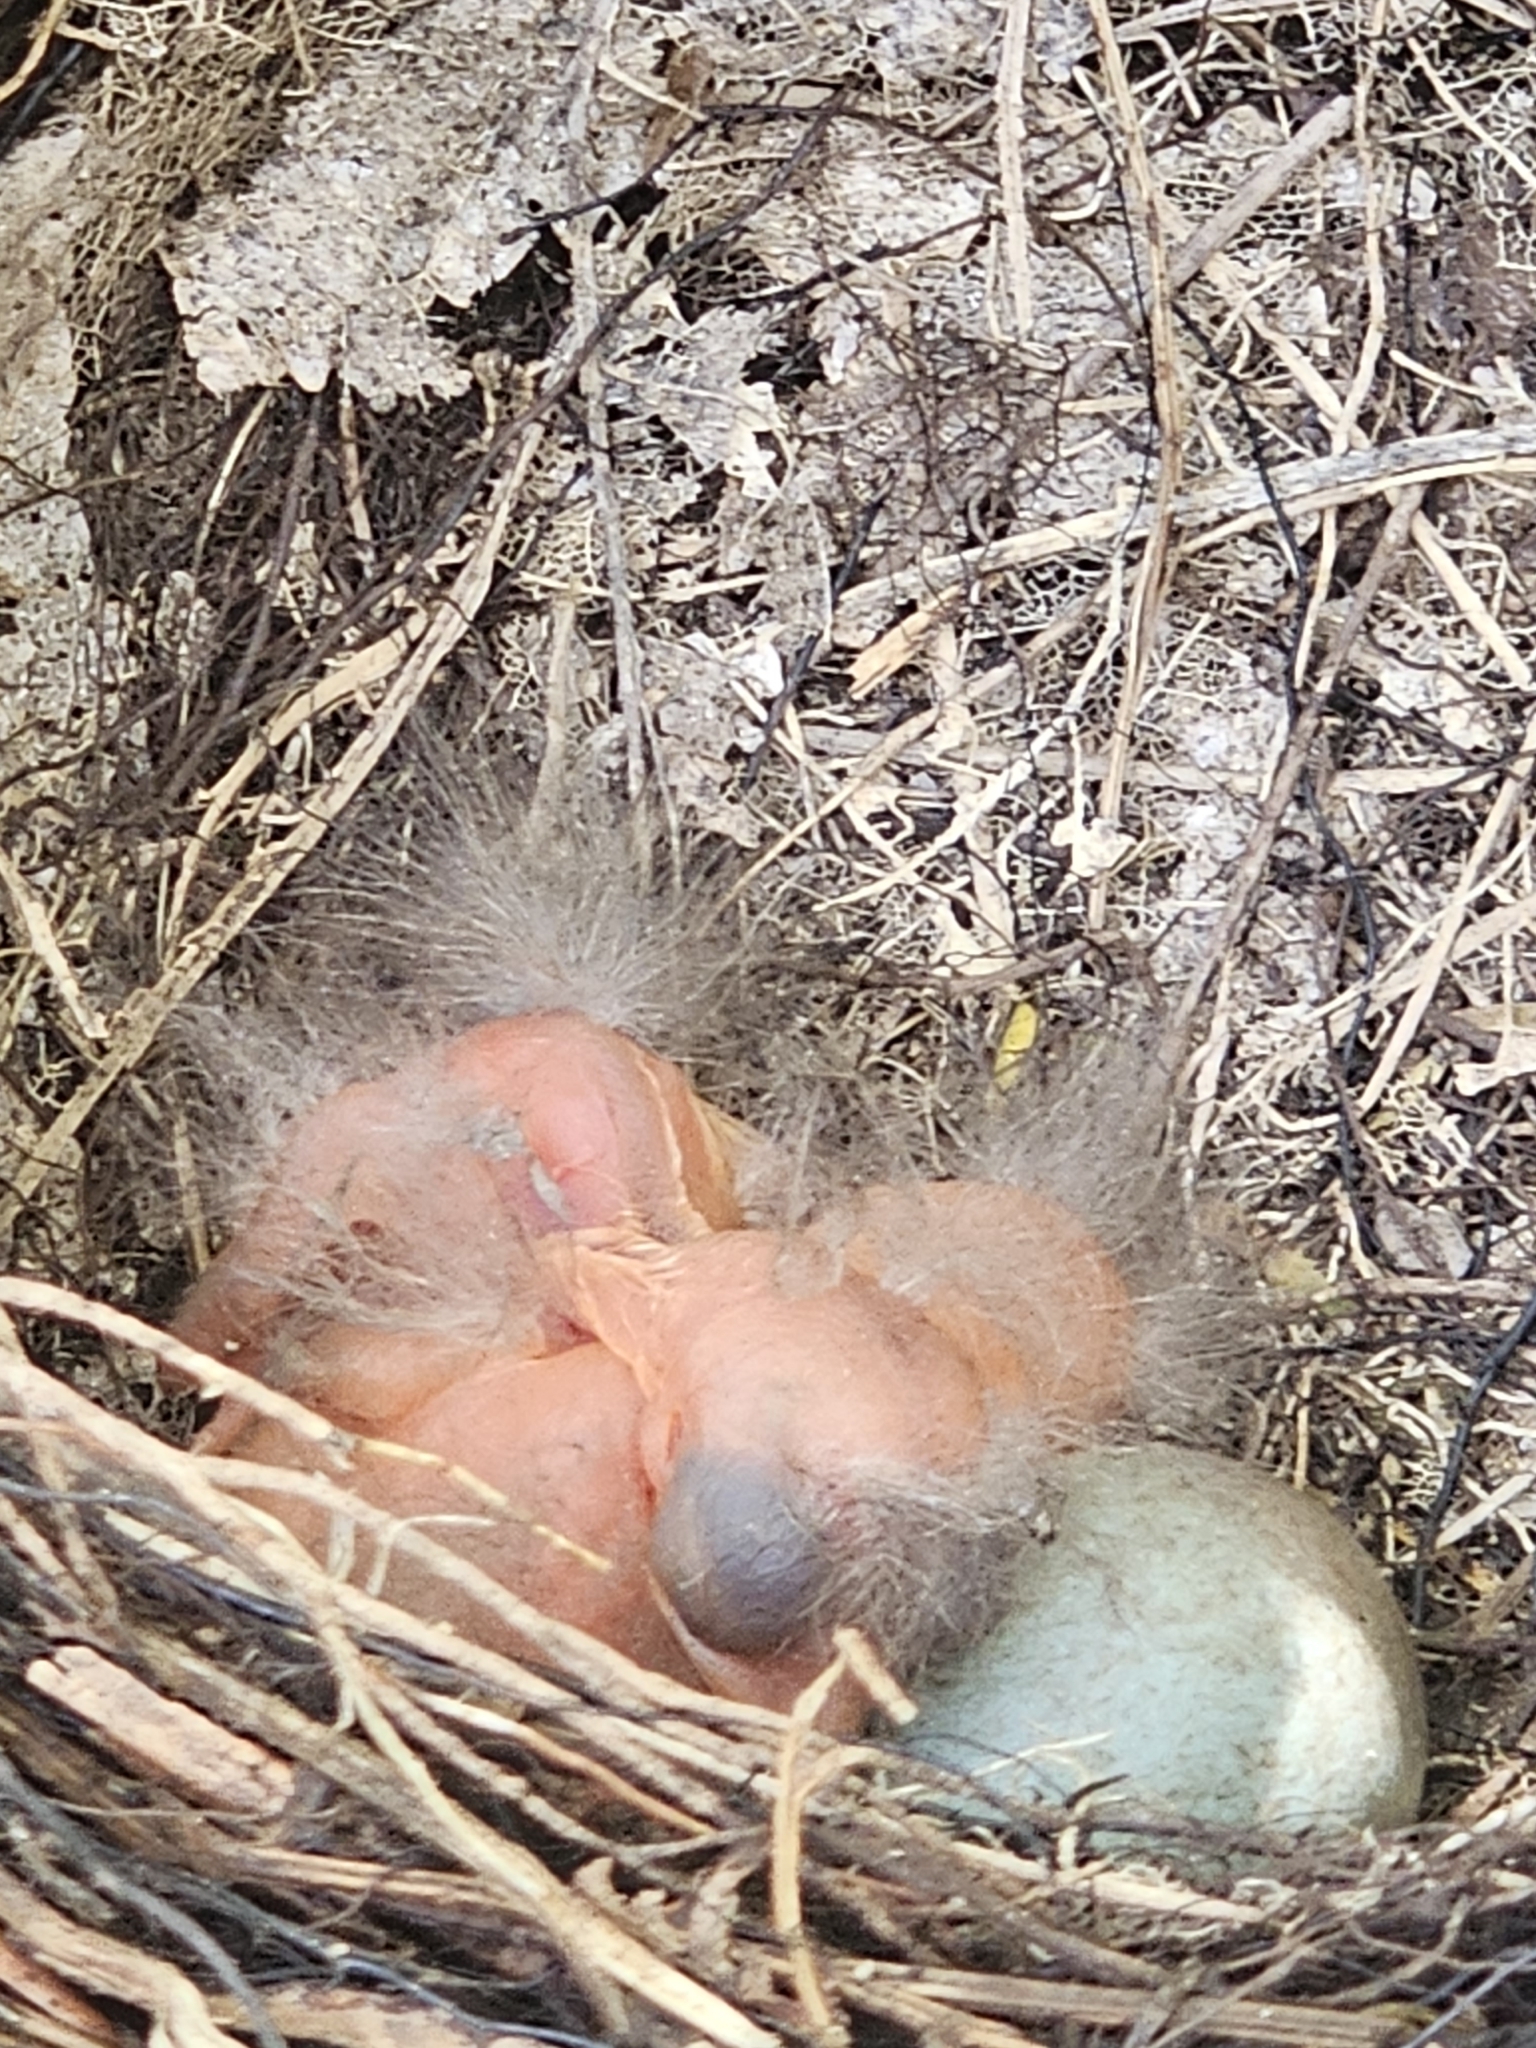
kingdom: Animalia
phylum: Chordata
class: Aves
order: Passeriformes
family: Turdidae
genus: Turdus
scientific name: Turdus merula
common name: Common blackbird
